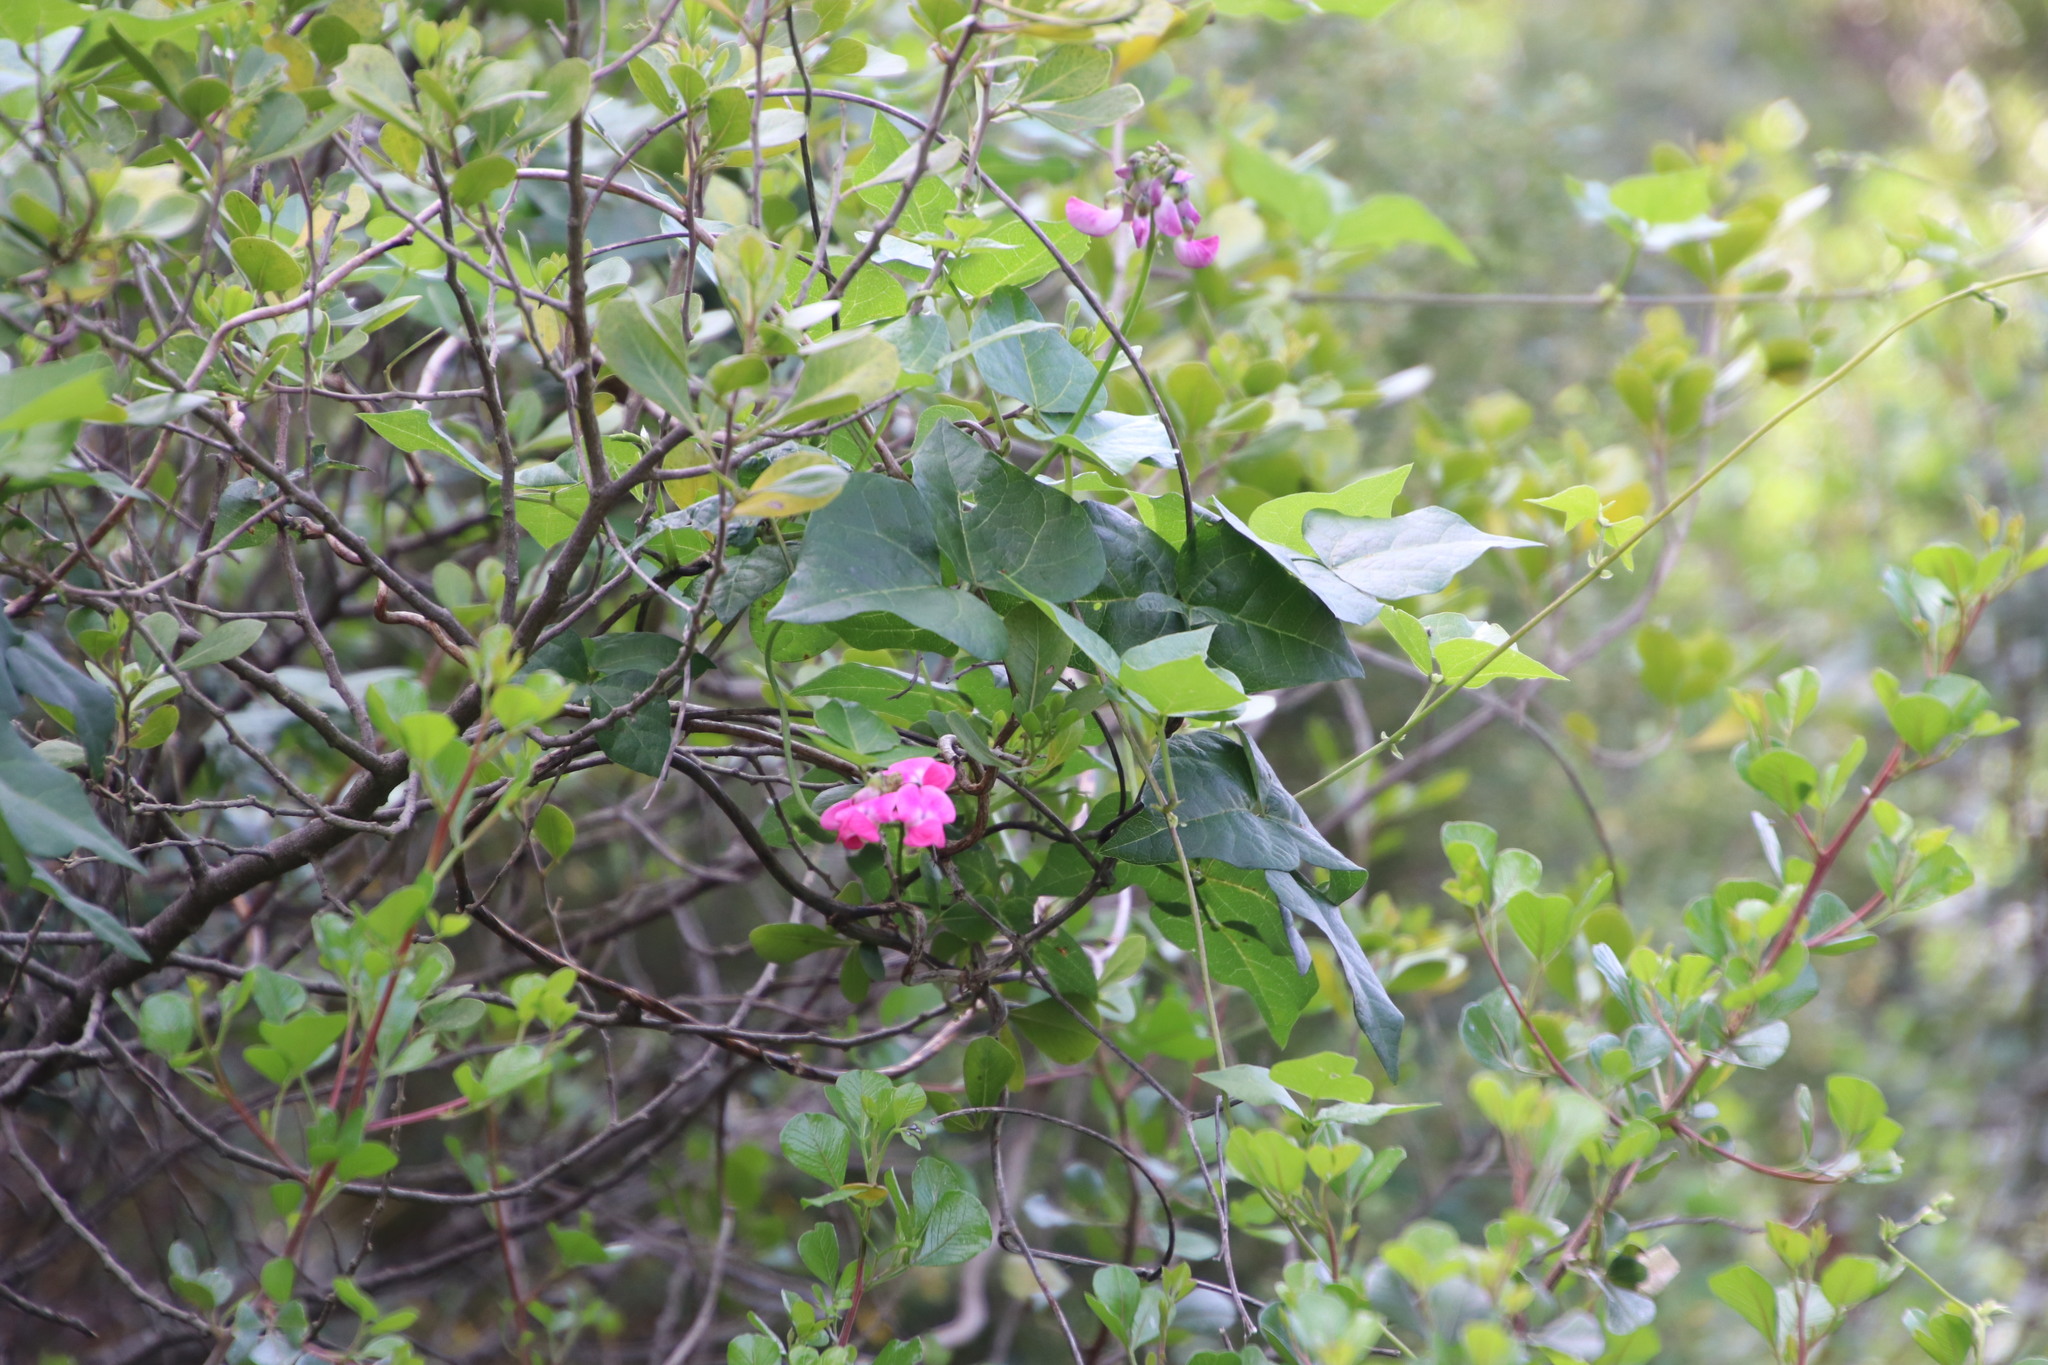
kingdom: Plantae
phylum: Tracheophyta
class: Magnoliopsida
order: Fabales
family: Fabaceae
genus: Dipogon
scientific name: Dipogon lignosus
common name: Okie bean
